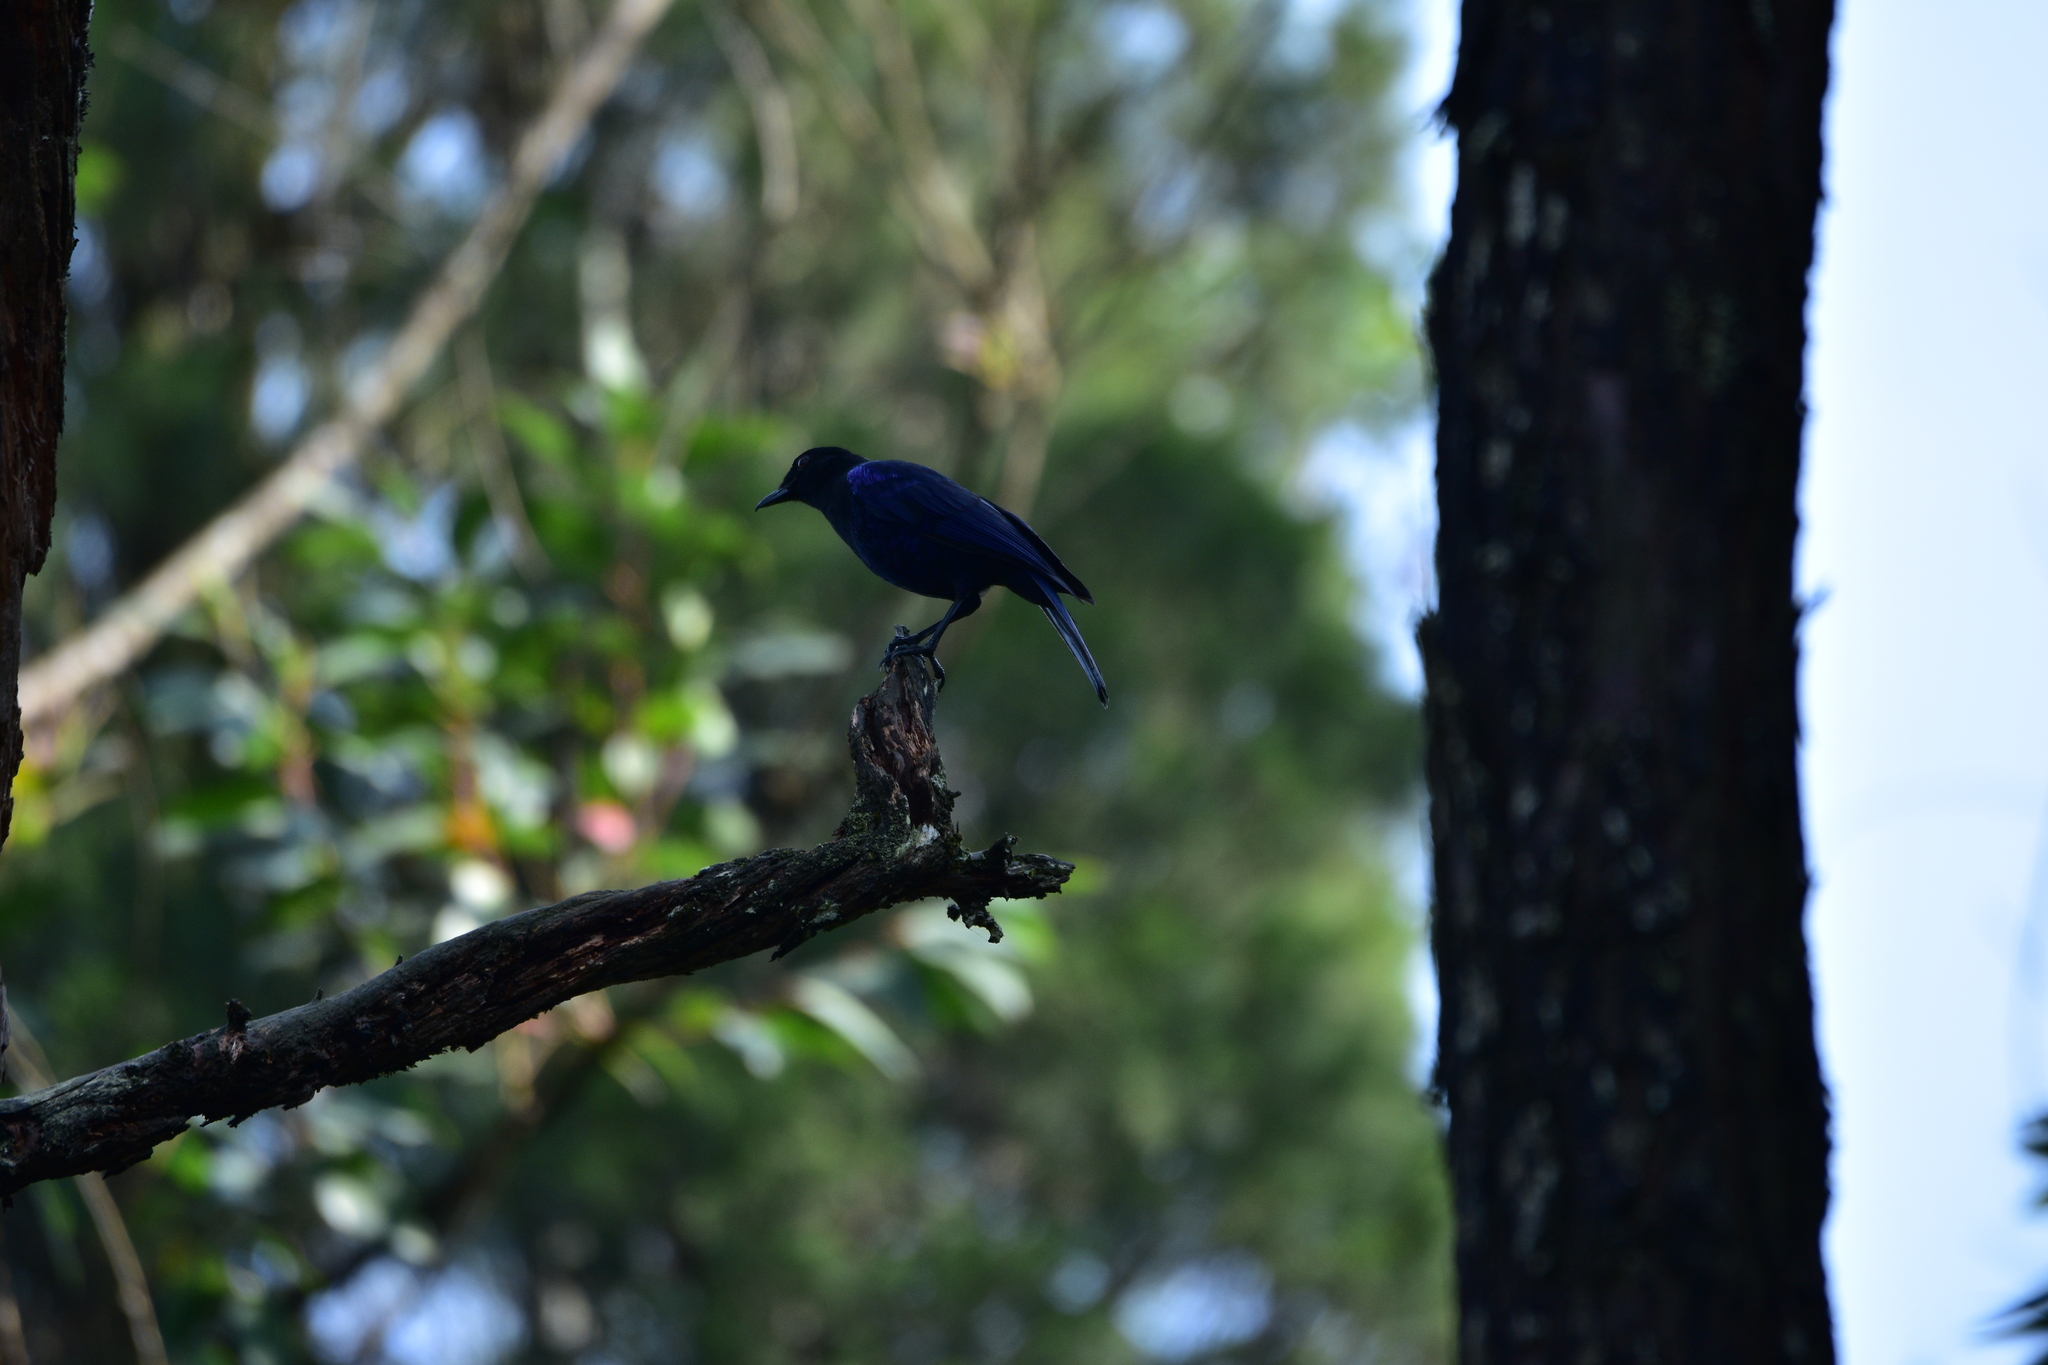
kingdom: Animalia
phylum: Chordata
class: Aves
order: Passeriformes
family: Muscicapidae
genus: Myophonus
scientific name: Myophonus horsfieldii
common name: Malabar whistling-thrush
